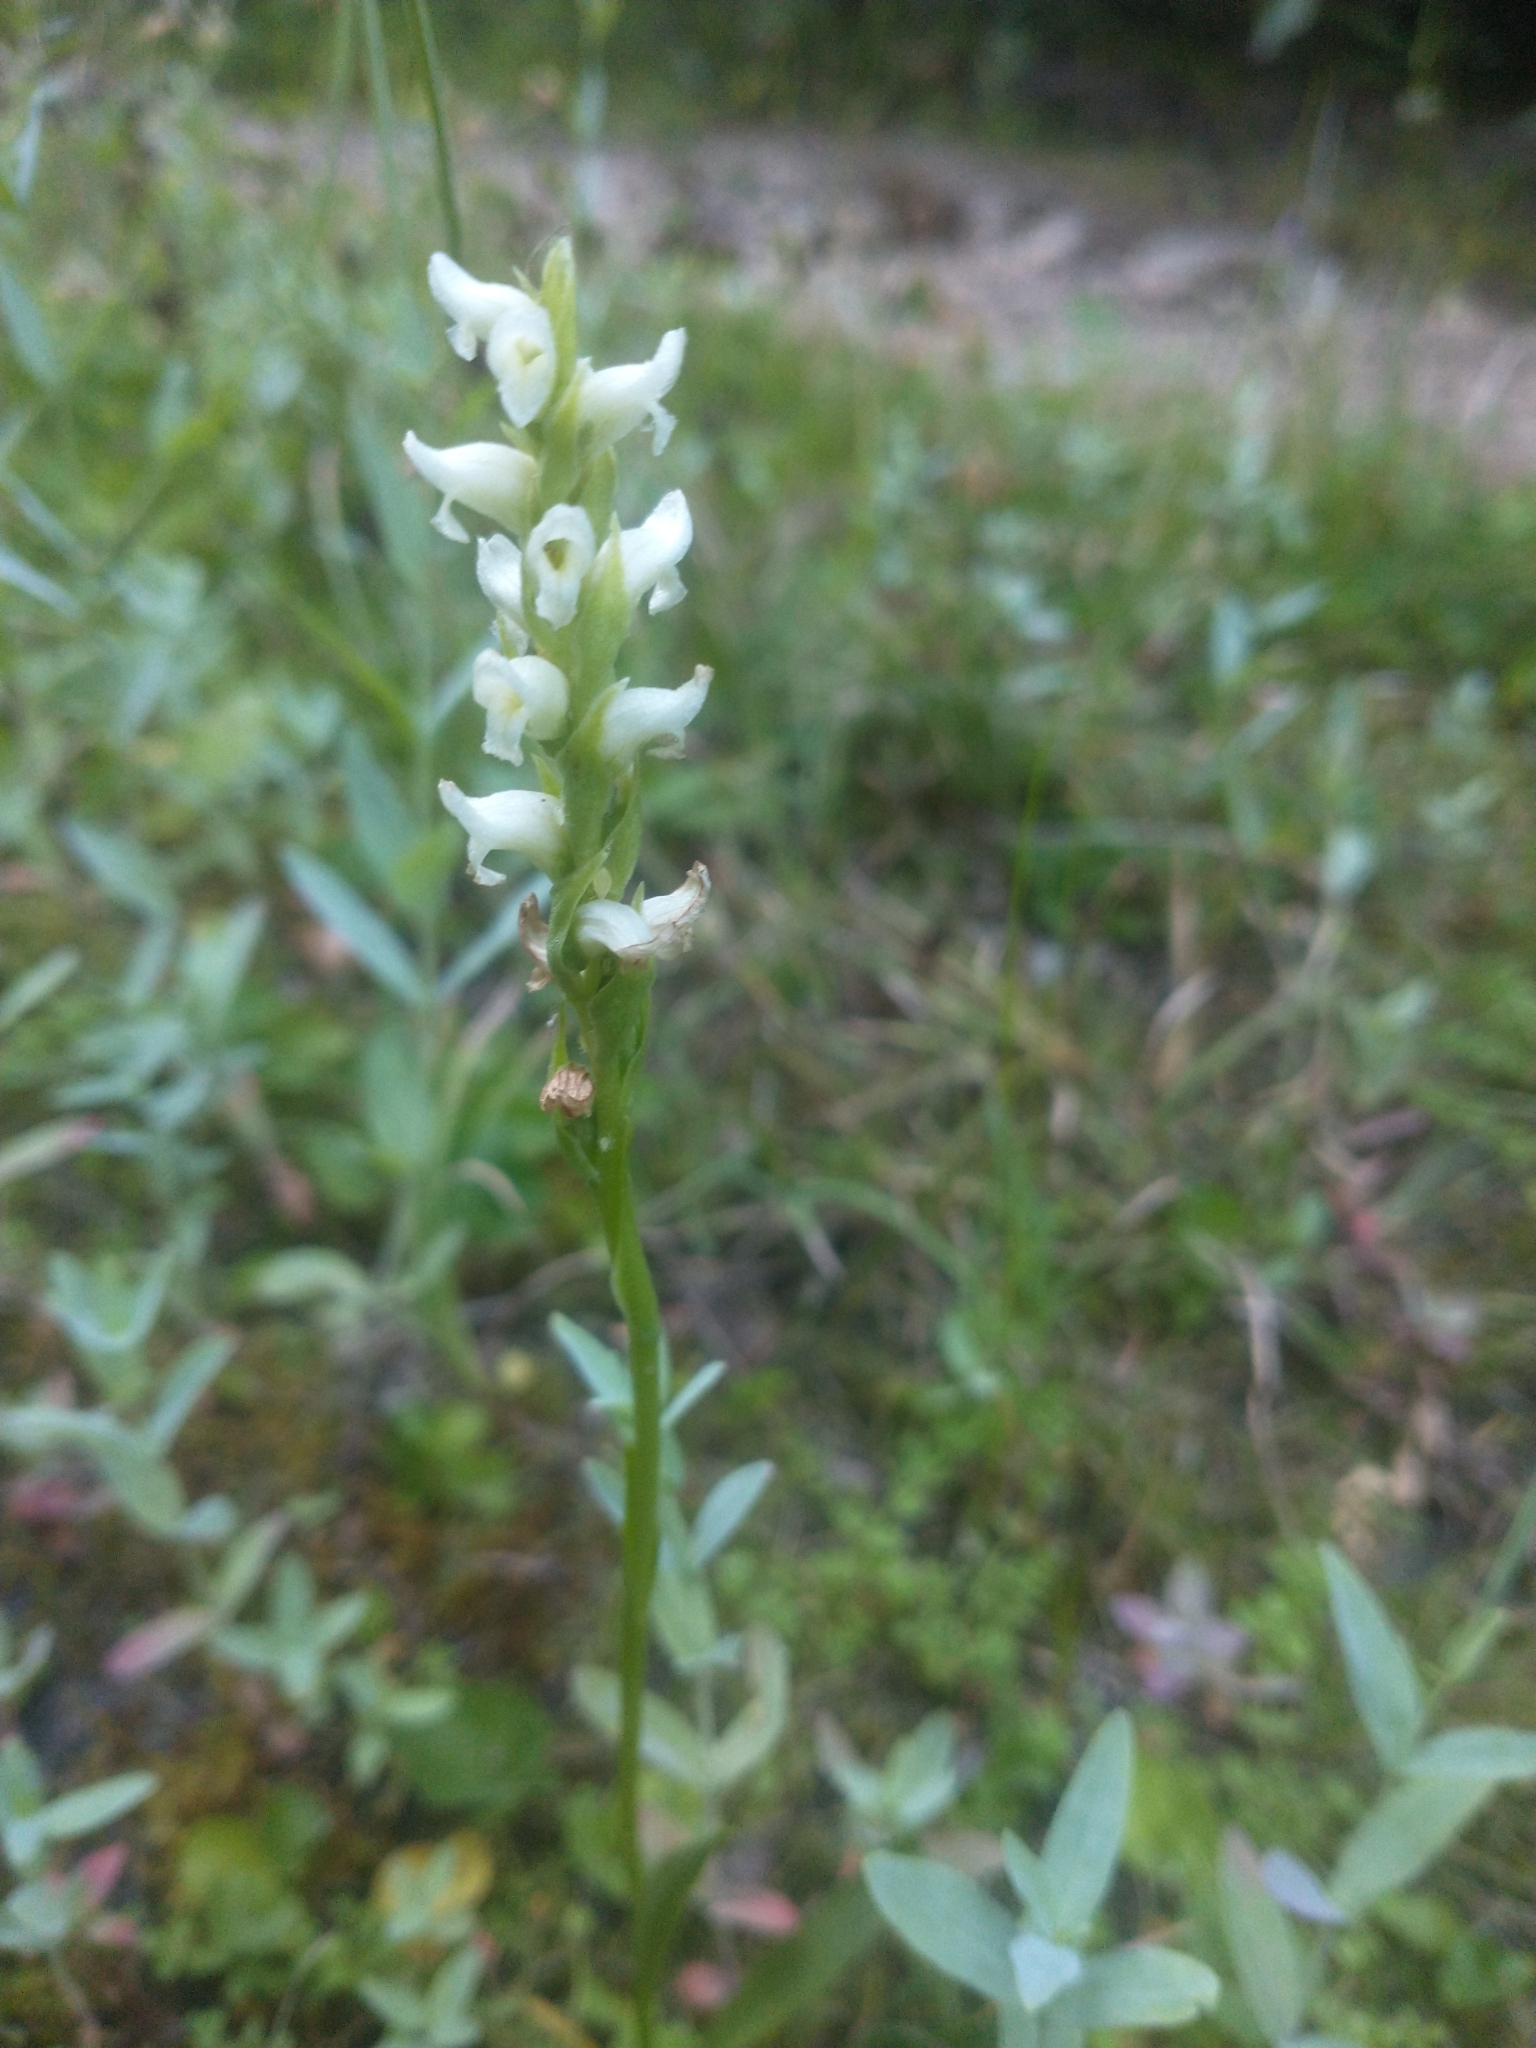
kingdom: Plantae
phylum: Tracheophyta
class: Liliopsida
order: Asparagales
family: Orchidaceae
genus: Spiranthes
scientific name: Spiranthes romanzoffiana
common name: Irish lady's-tresses
